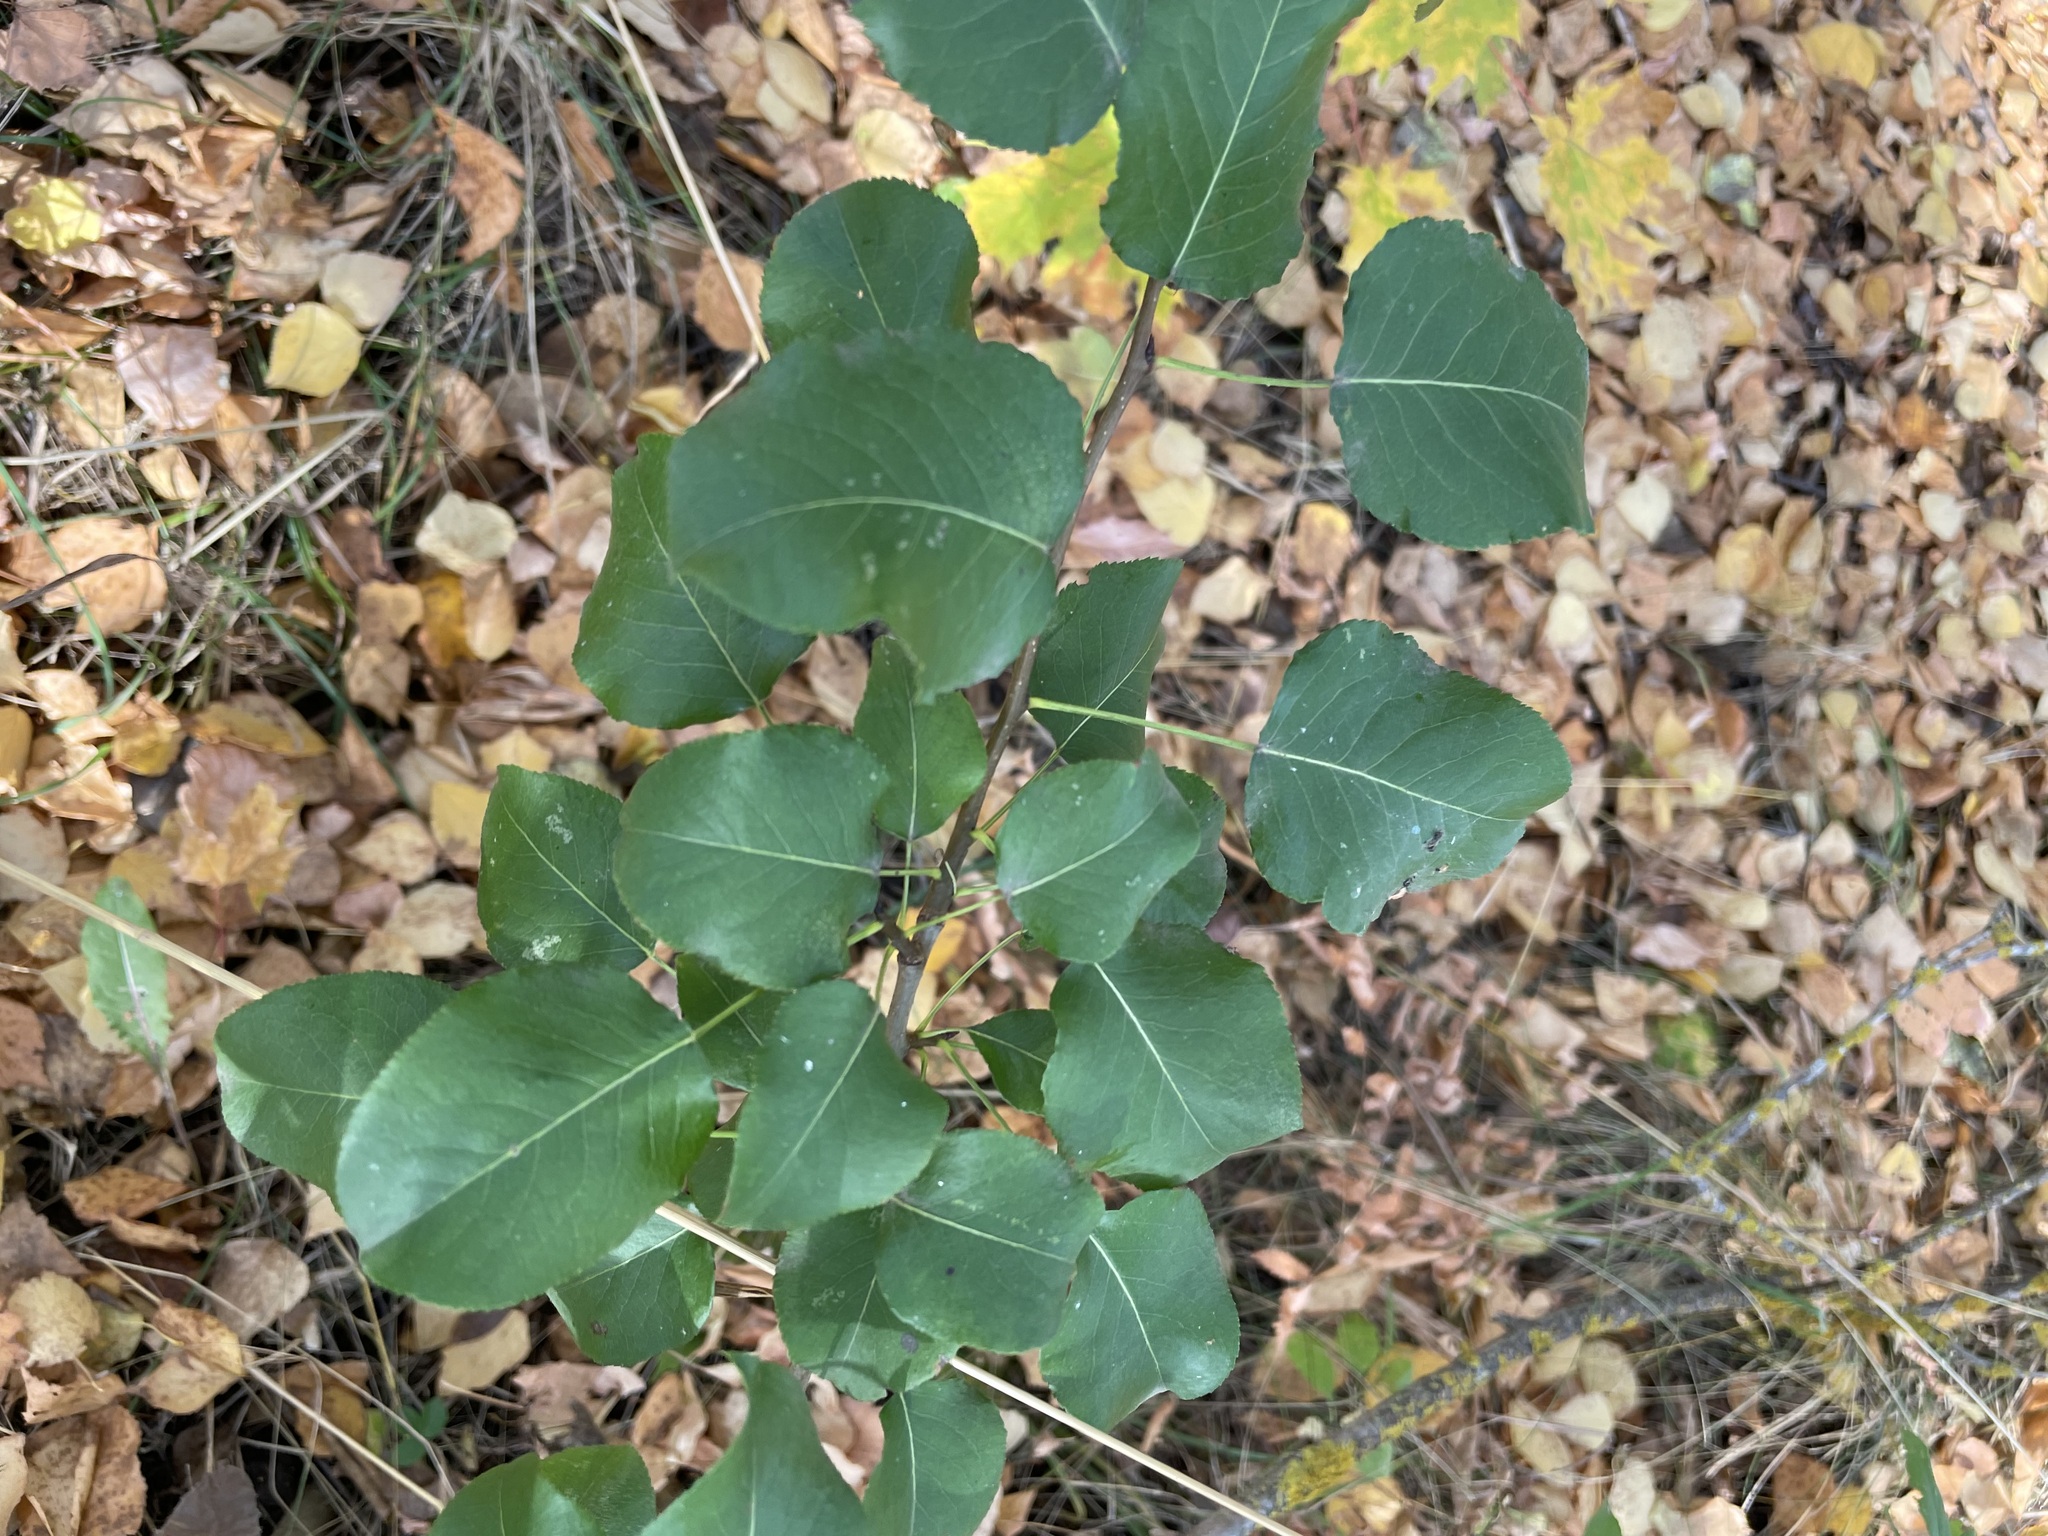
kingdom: Plantae
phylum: Tracheophyta
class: Magnoliopsida
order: Rosales
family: Rosaceae
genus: Pyrus
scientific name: Pyrus communis
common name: Pear
